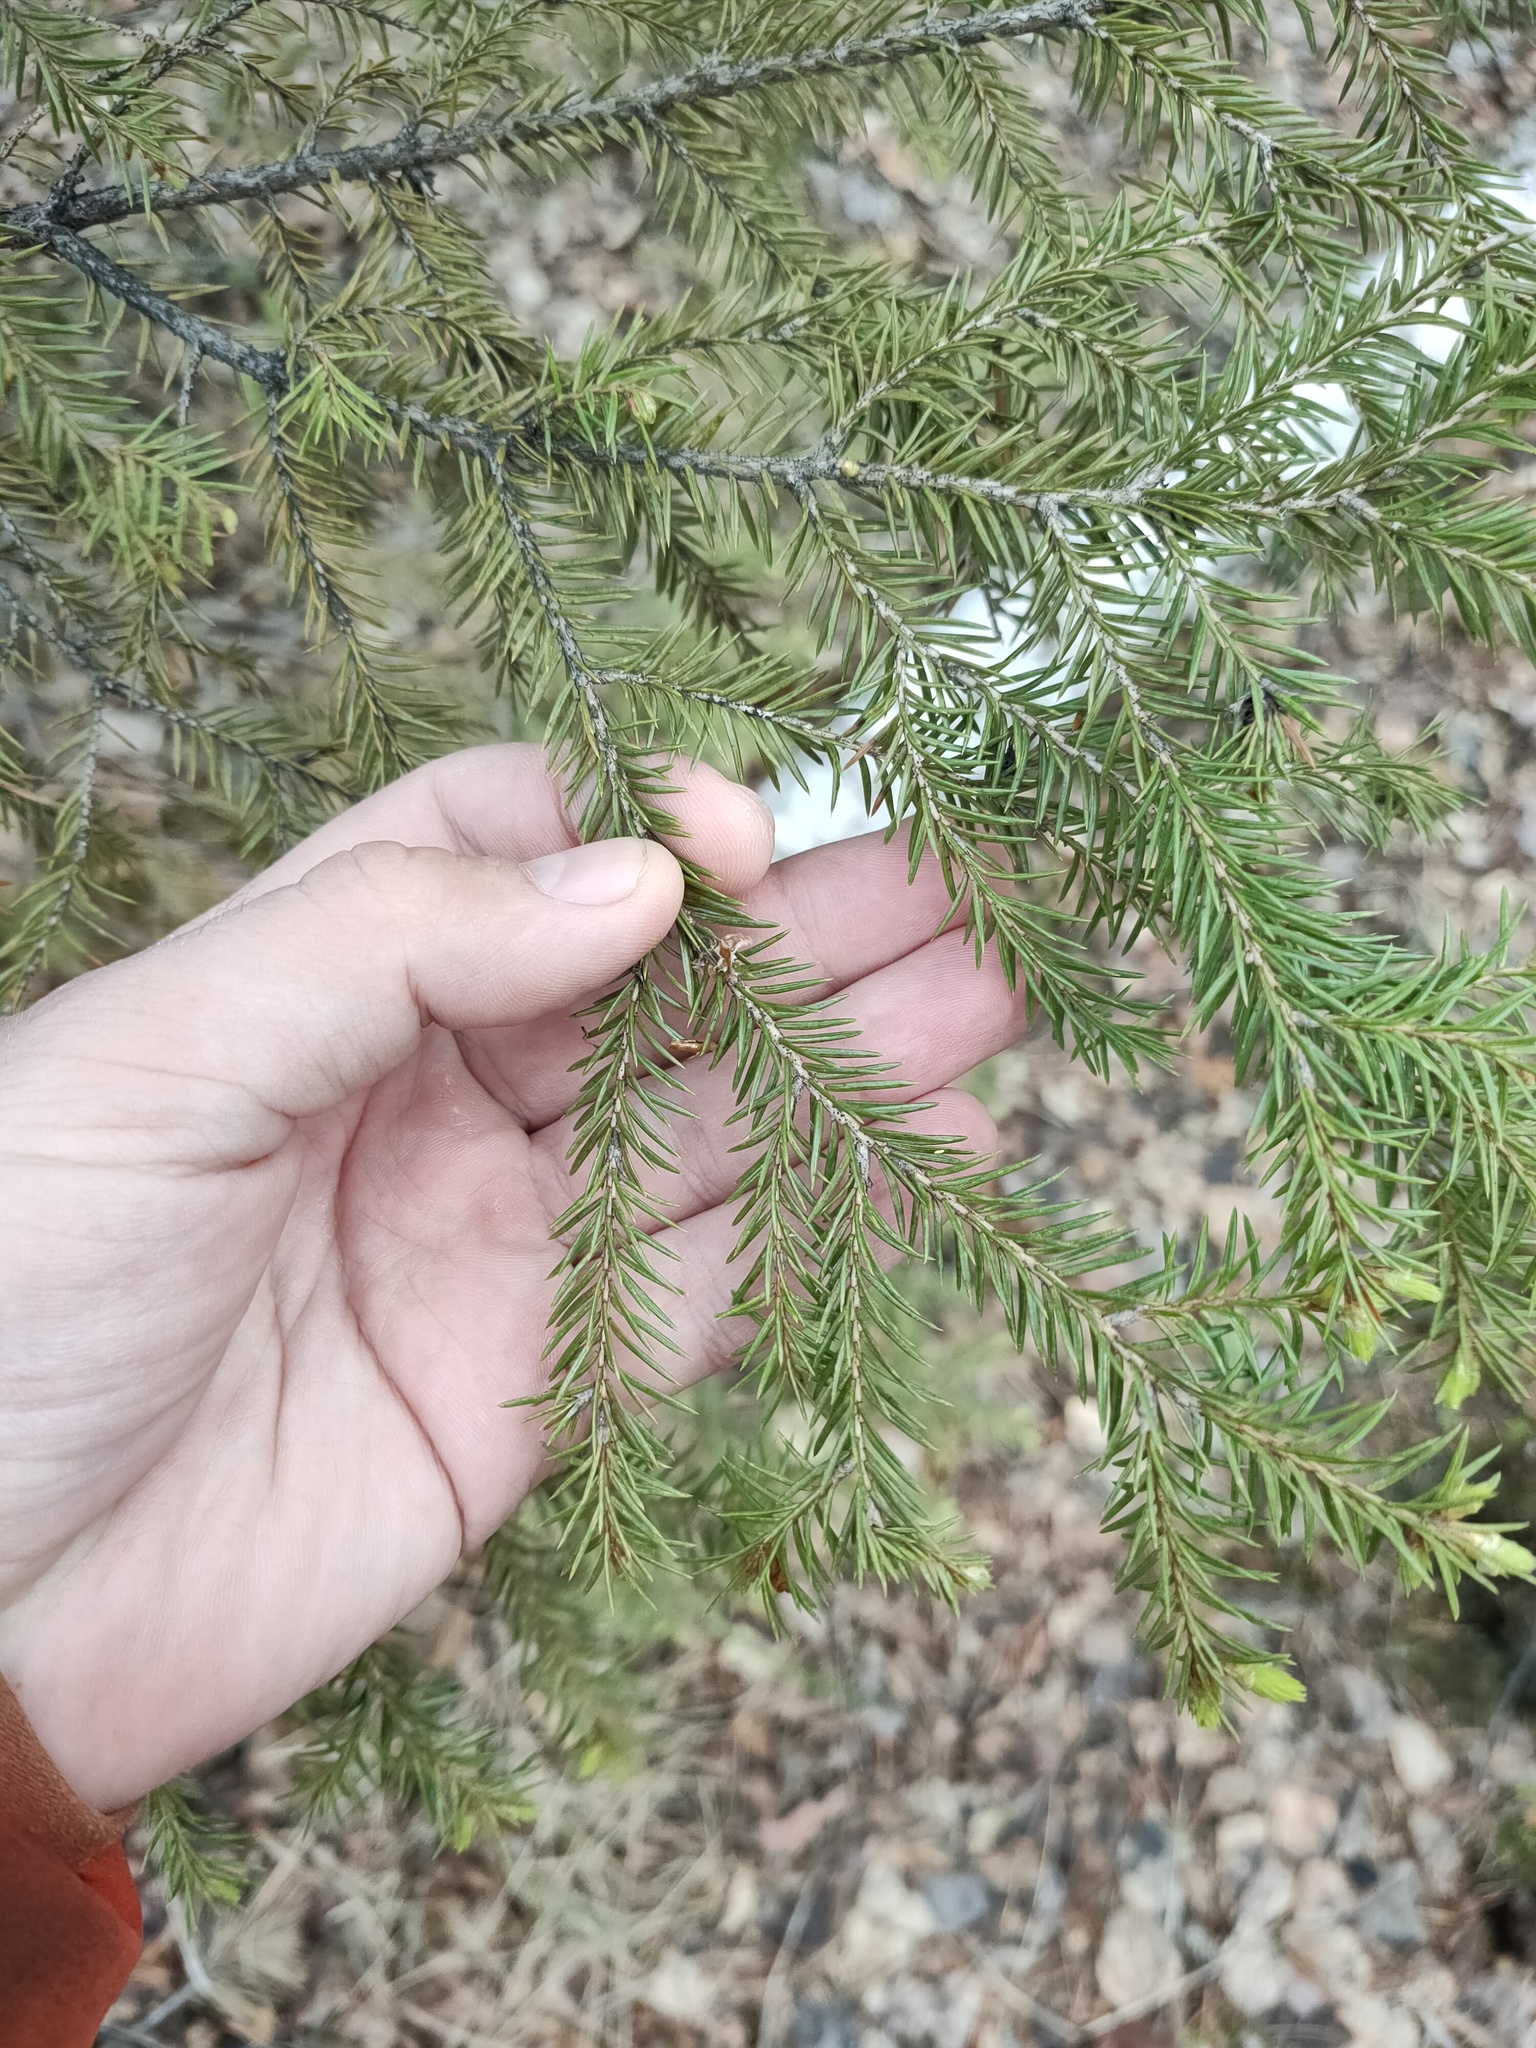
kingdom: Plantae
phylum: Tracheophyta
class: Pinopsida
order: Pinales
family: Pinaceae
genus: Picea
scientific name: Picea
